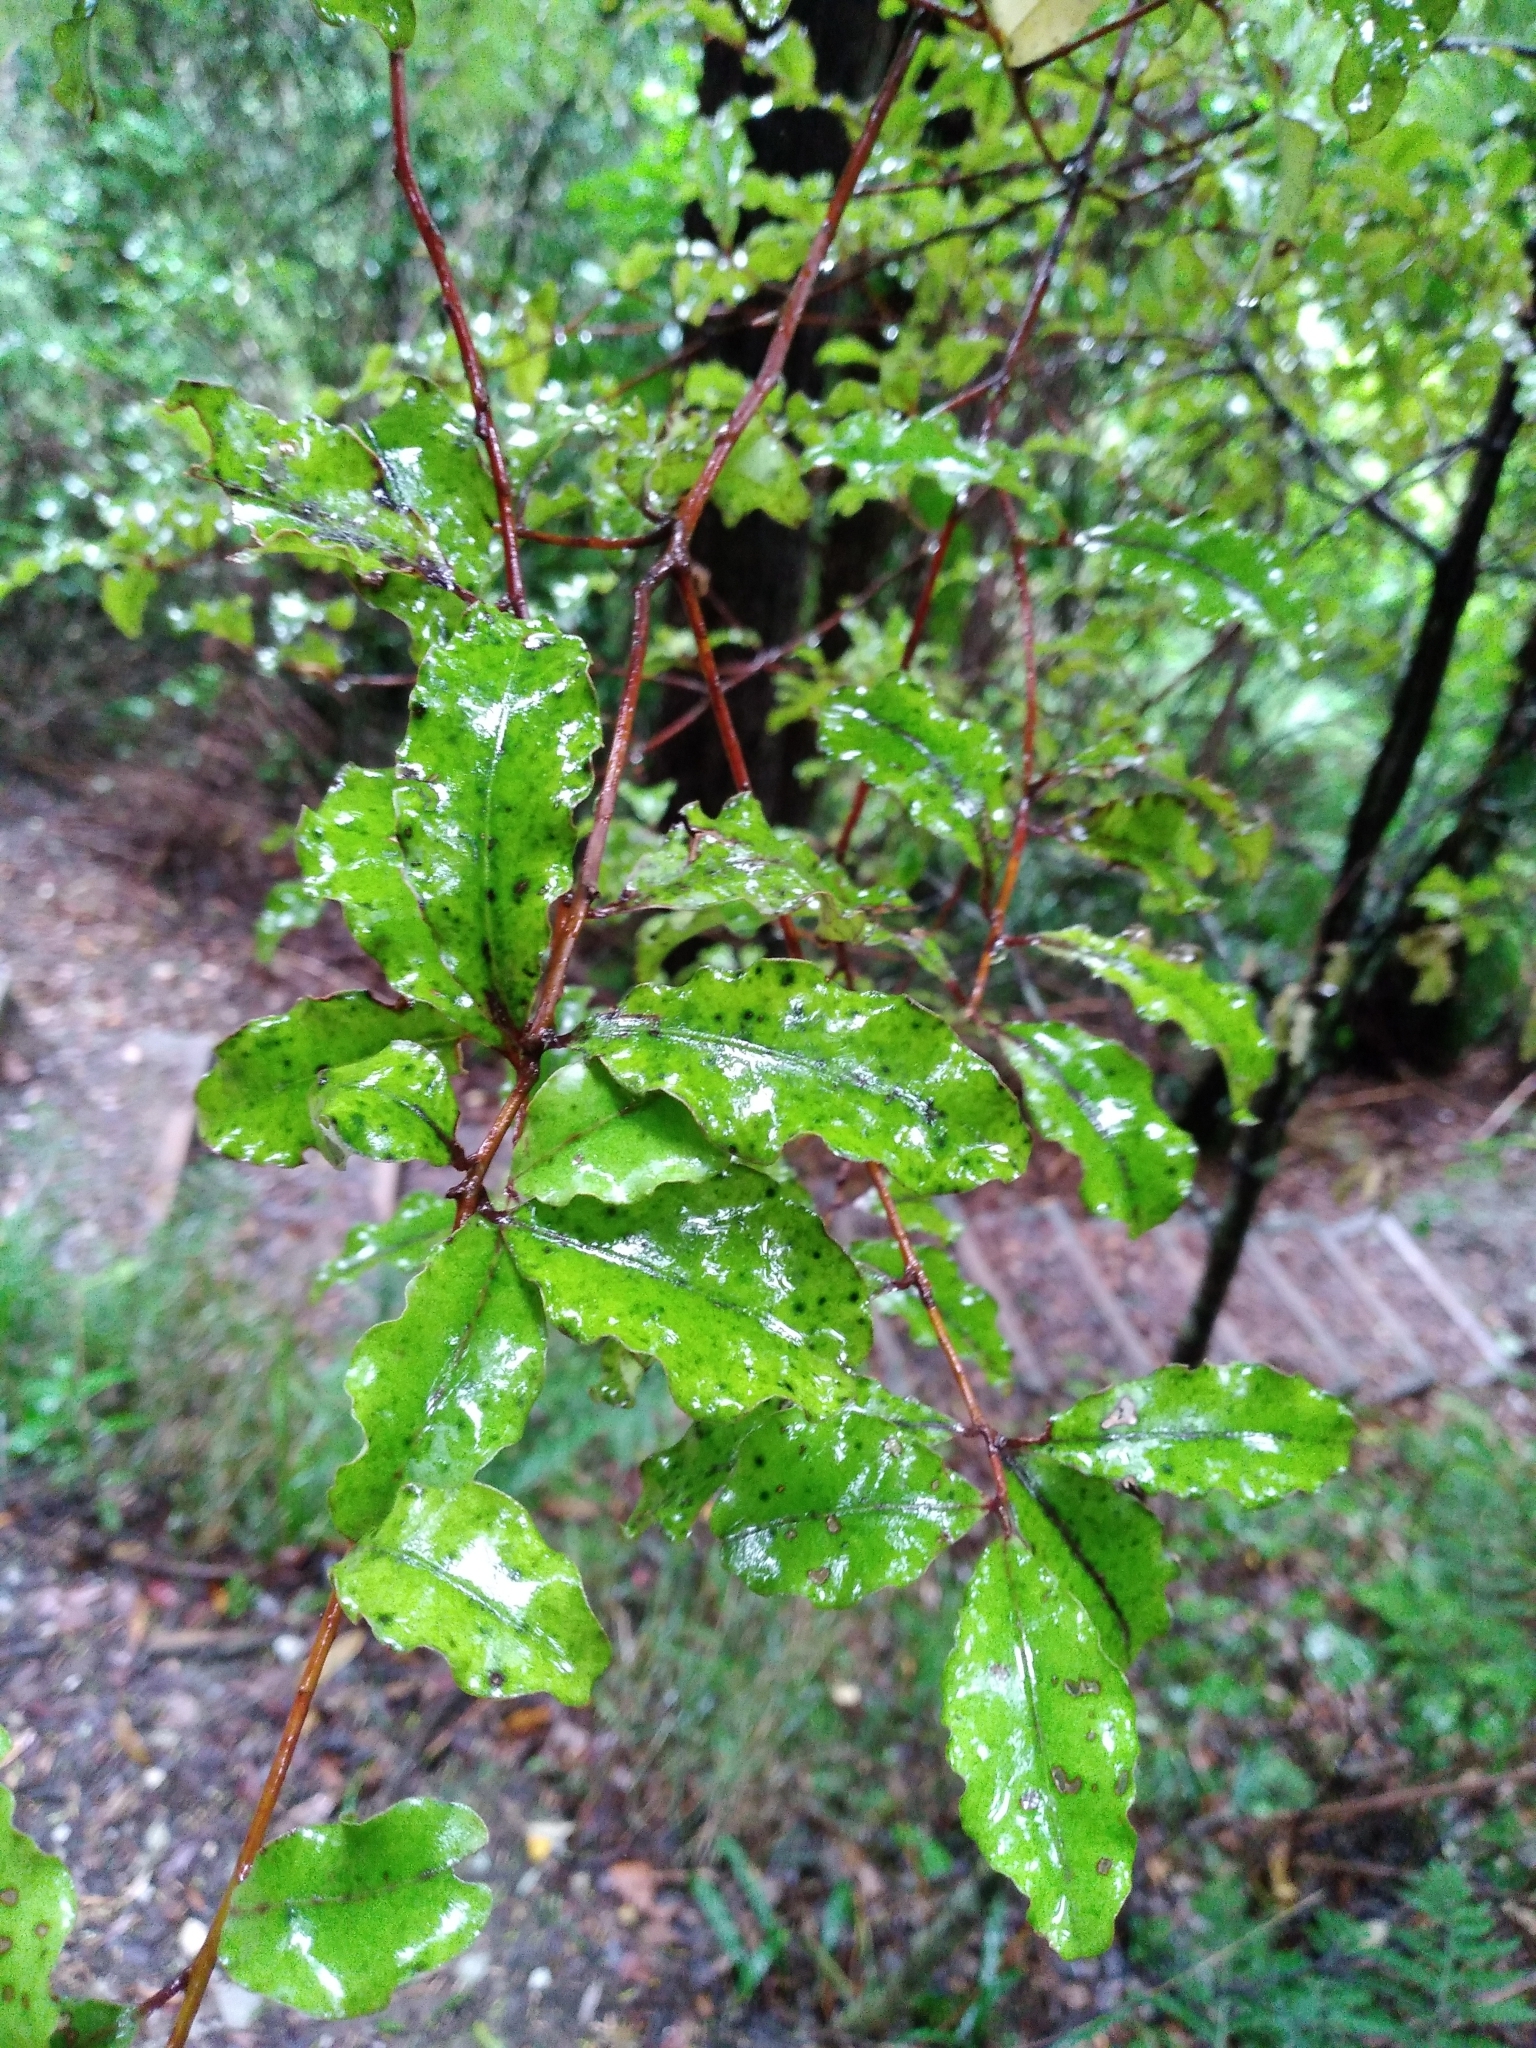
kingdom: Plantae
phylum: Tracheophyta
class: Magnoliopsida
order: Ericales
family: Primulaceae
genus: Myrsine
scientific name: Myrsine australis
